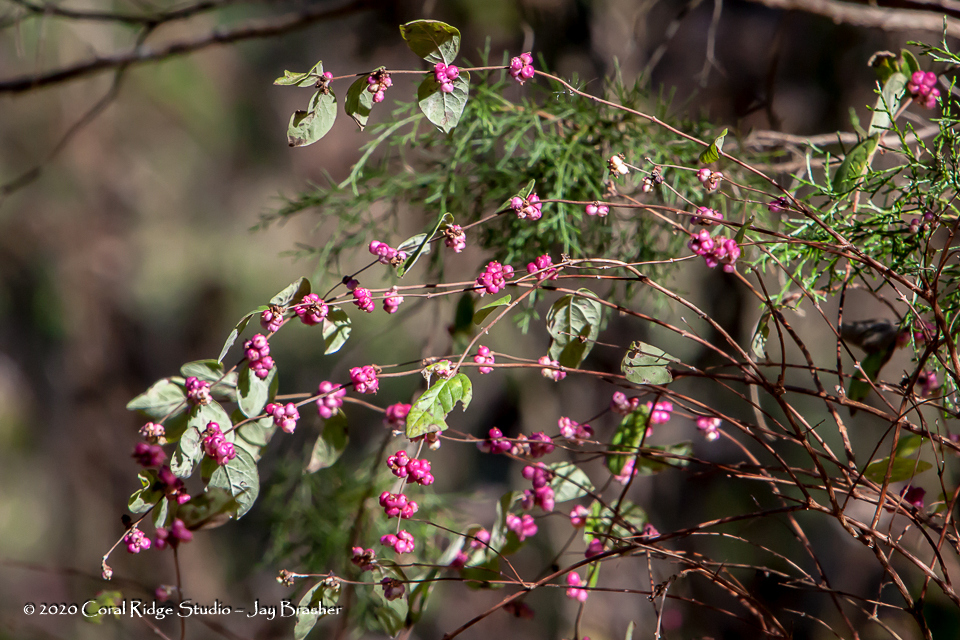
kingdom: Plantae
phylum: Tracheophyta
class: Magnoliopsida
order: Dipsacales
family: Caprifoliaceae
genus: Symphoricarpos
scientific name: Symphoricarpos orbiculatus
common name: Coralberry
